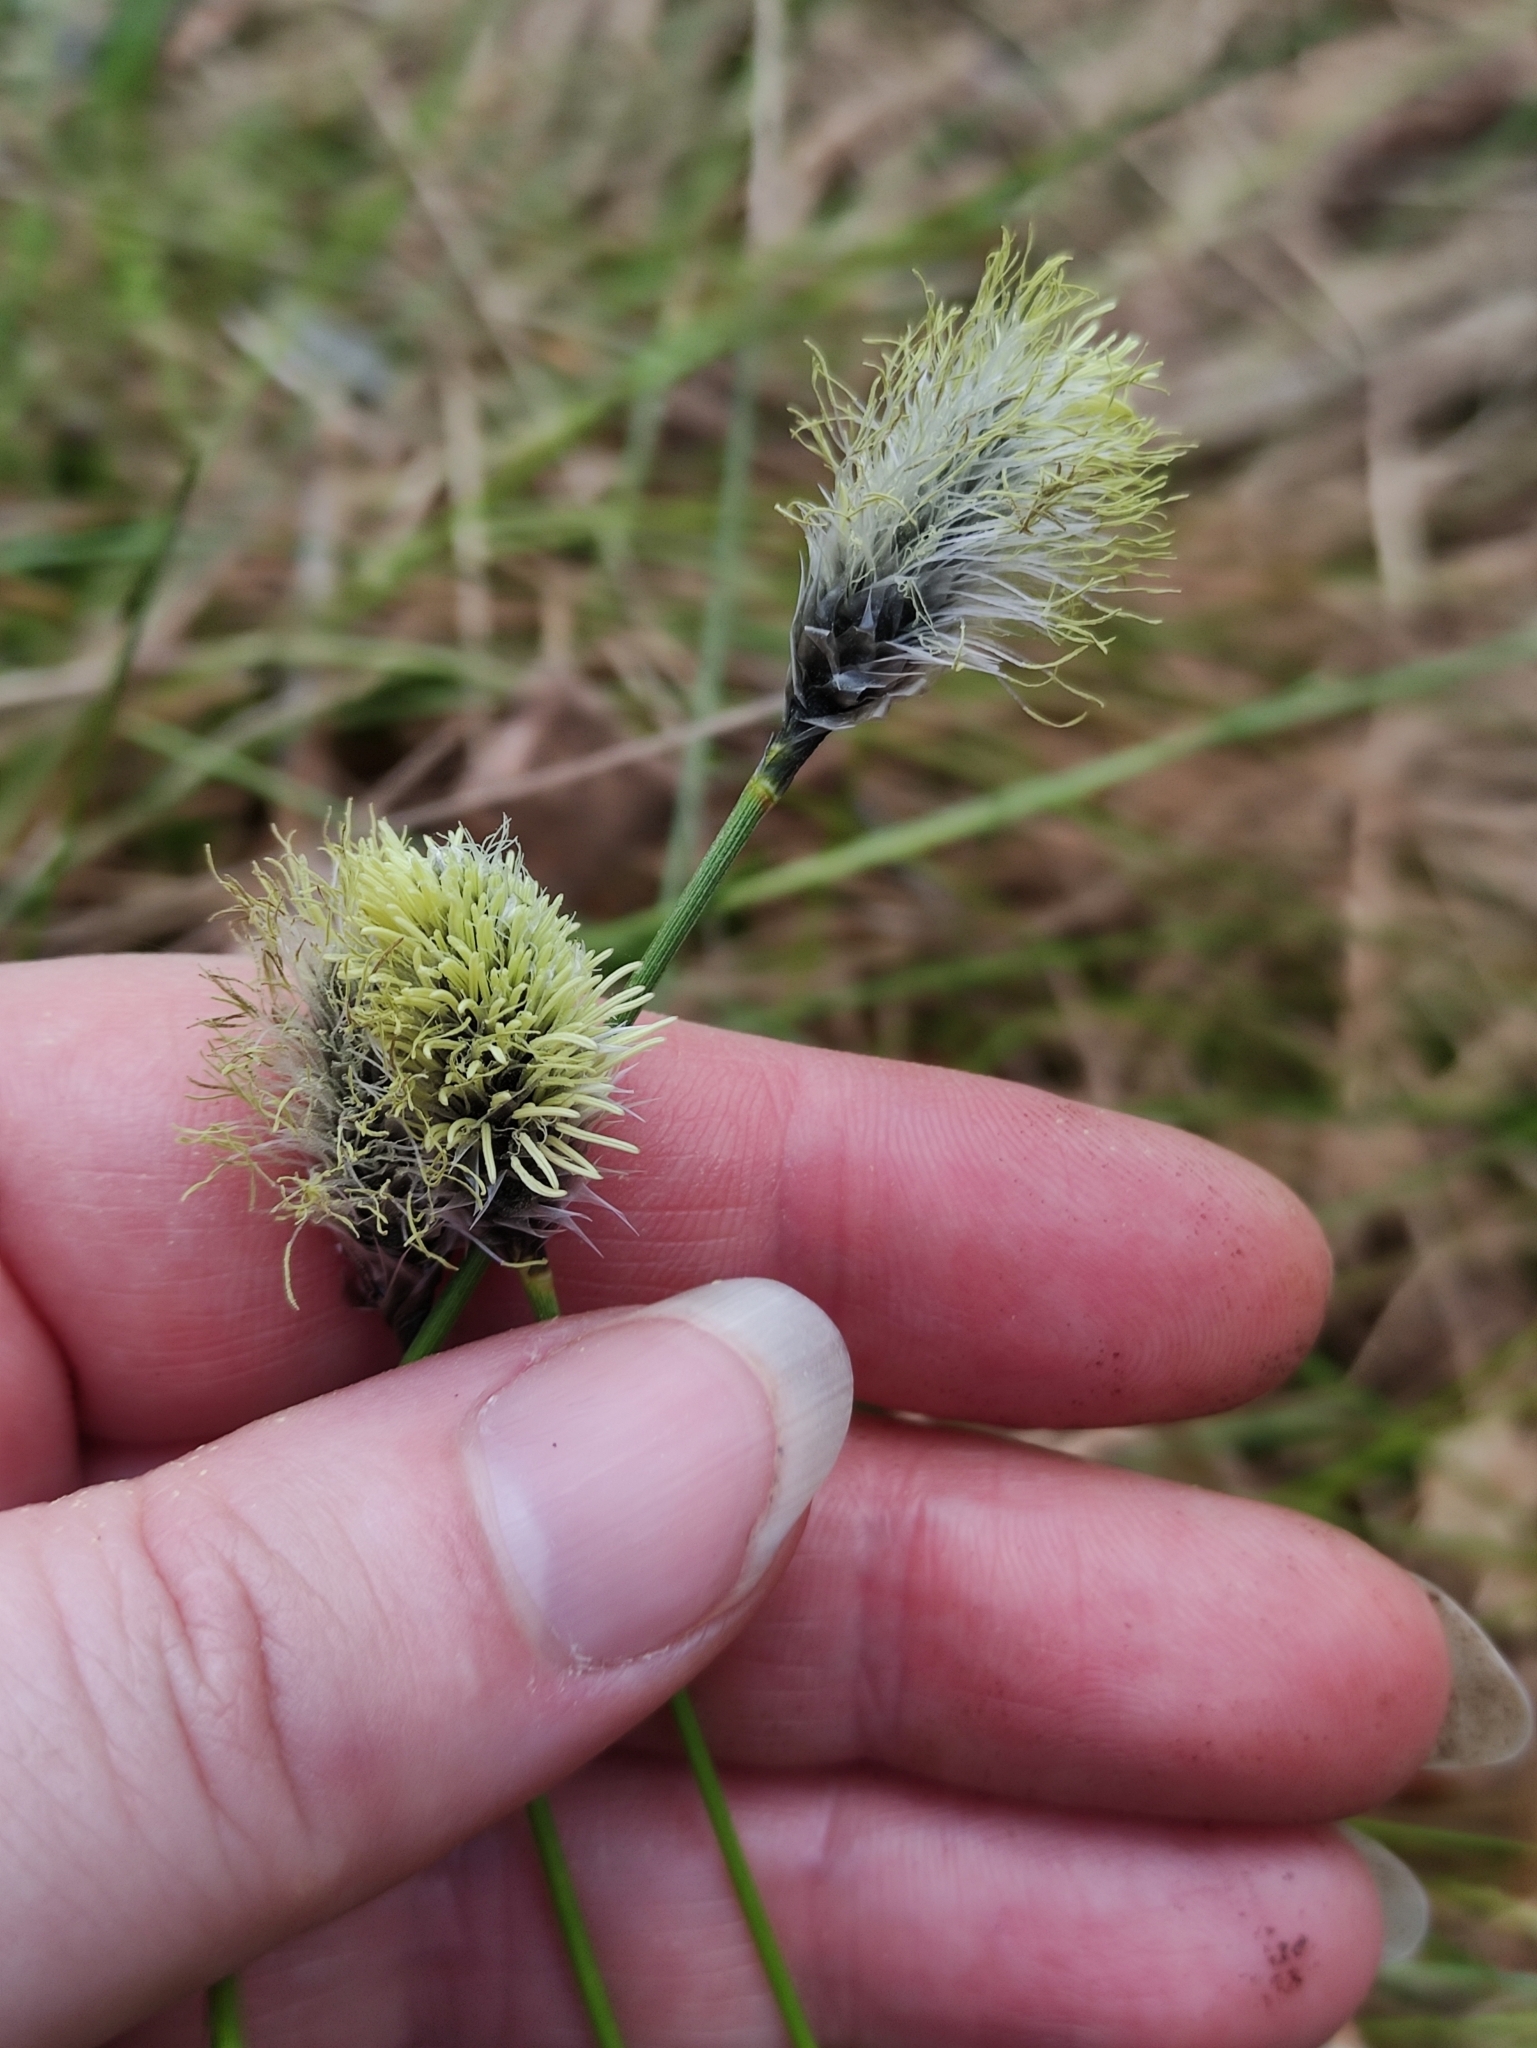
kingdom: Plantae
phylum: Tracheophyta
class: Liliopsida
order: Poales
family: Cyperaceae
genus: Eriophorum
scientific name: Eriophorum vaginatum
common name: Hare's-tail cottongrass
